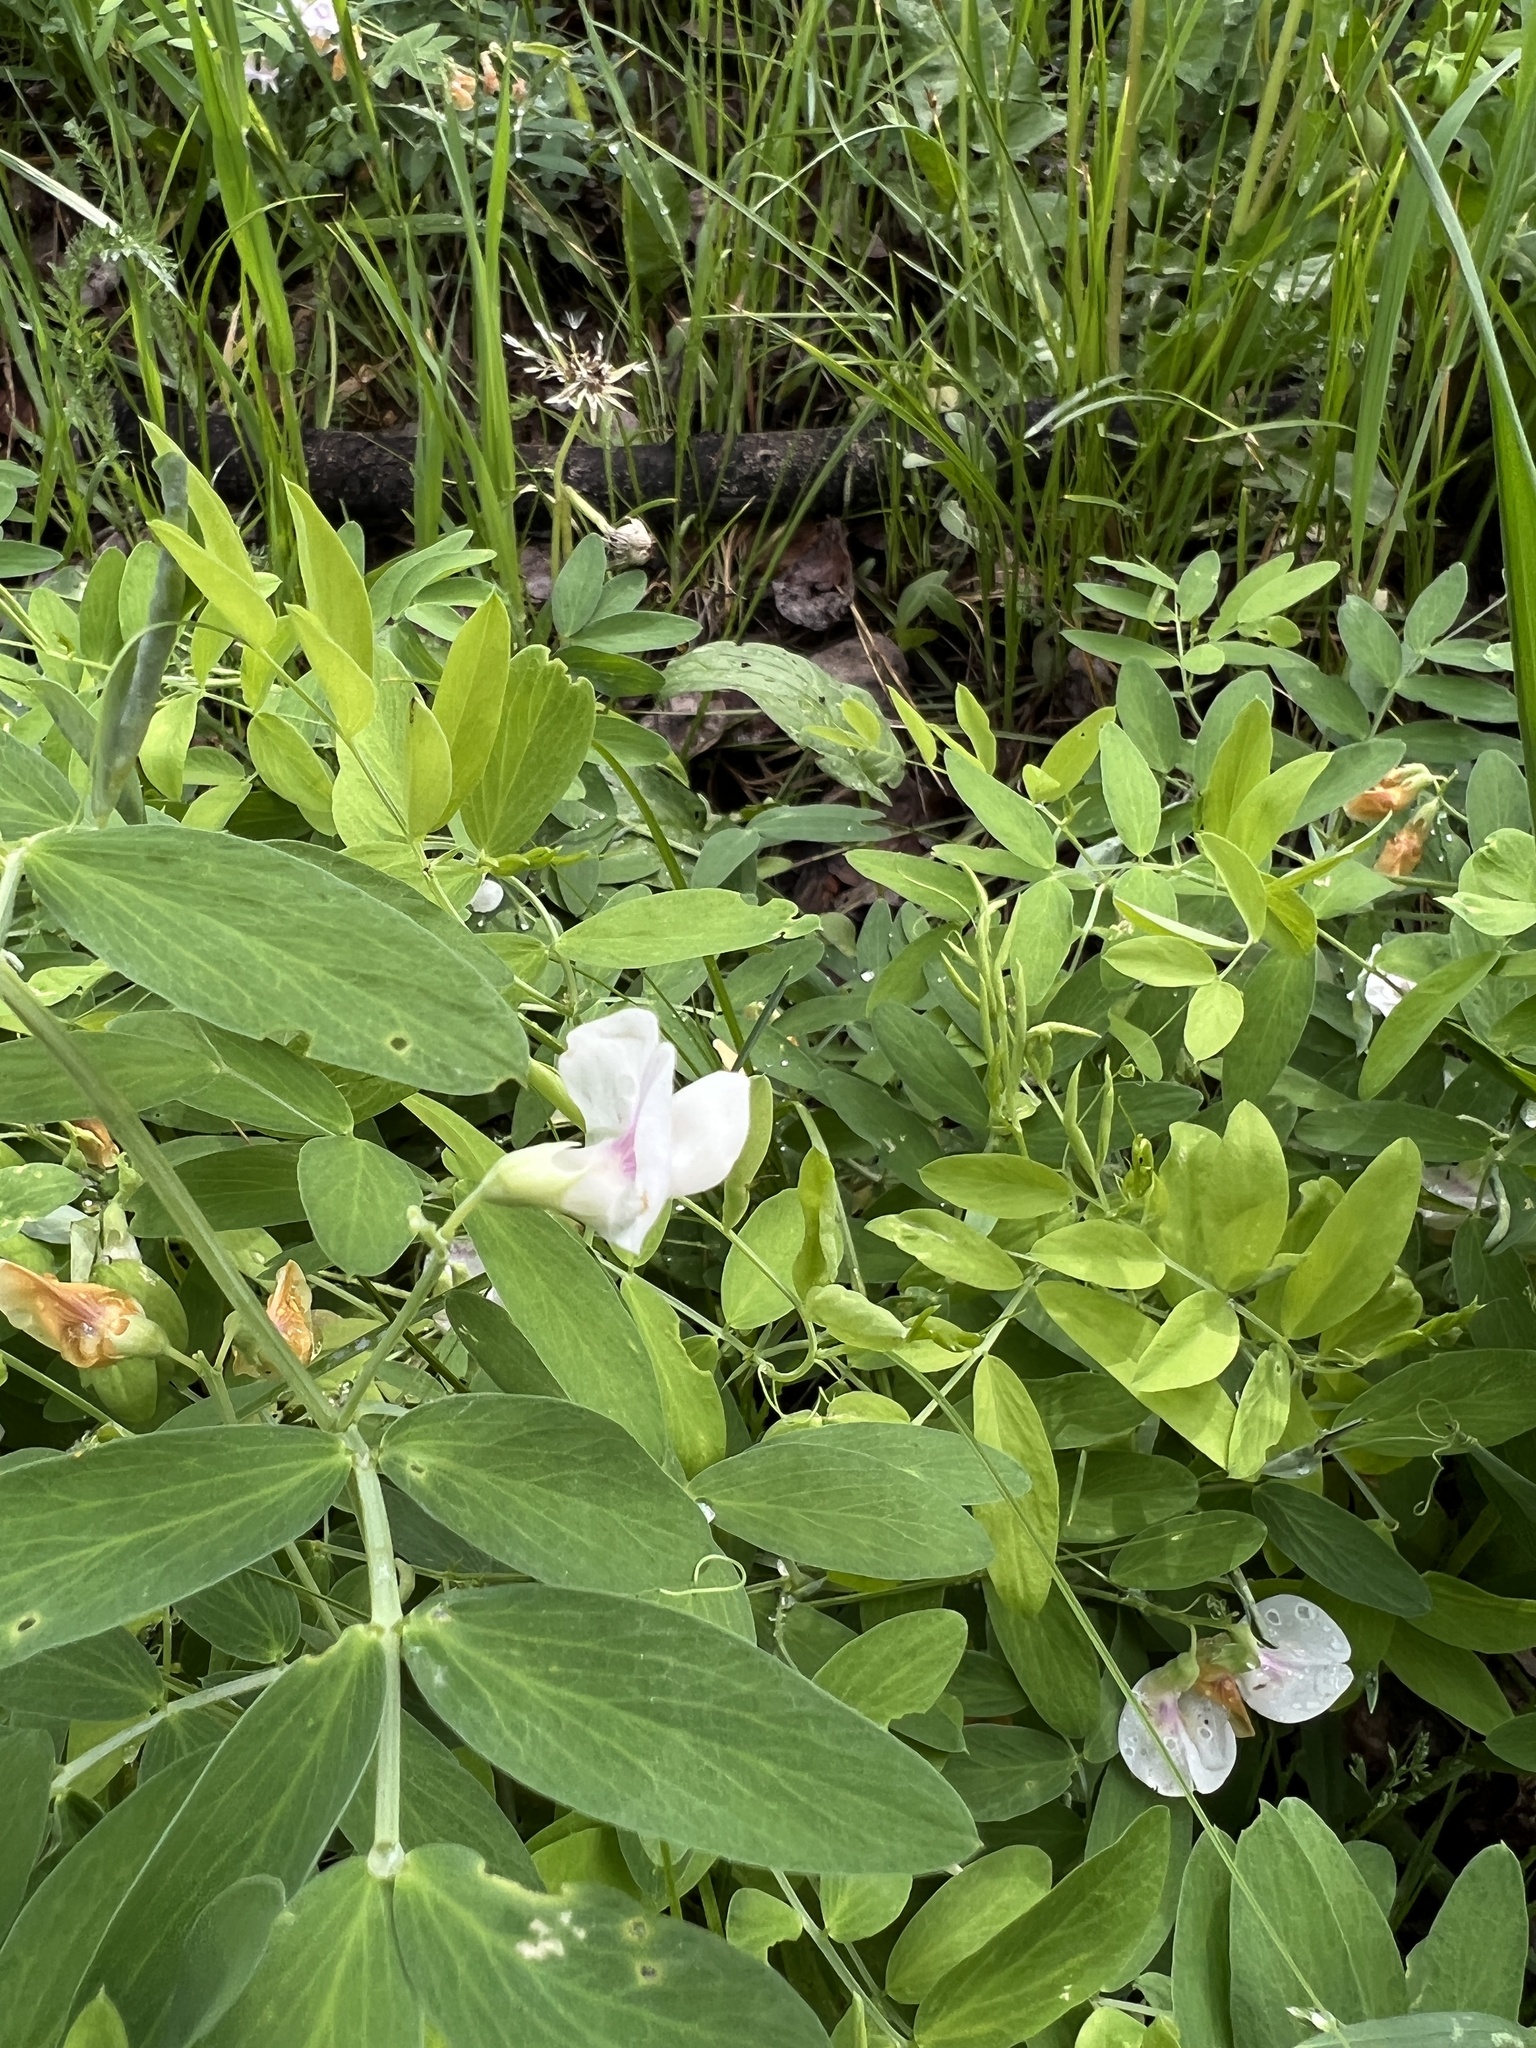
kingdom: Plantae
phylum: Tracheophyta
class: Magnoliopsida
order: Fabales
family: Fabaceae
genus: Lathyrus
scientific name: Lathyrus lanszwertii
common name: Lanszwert's vetchling
